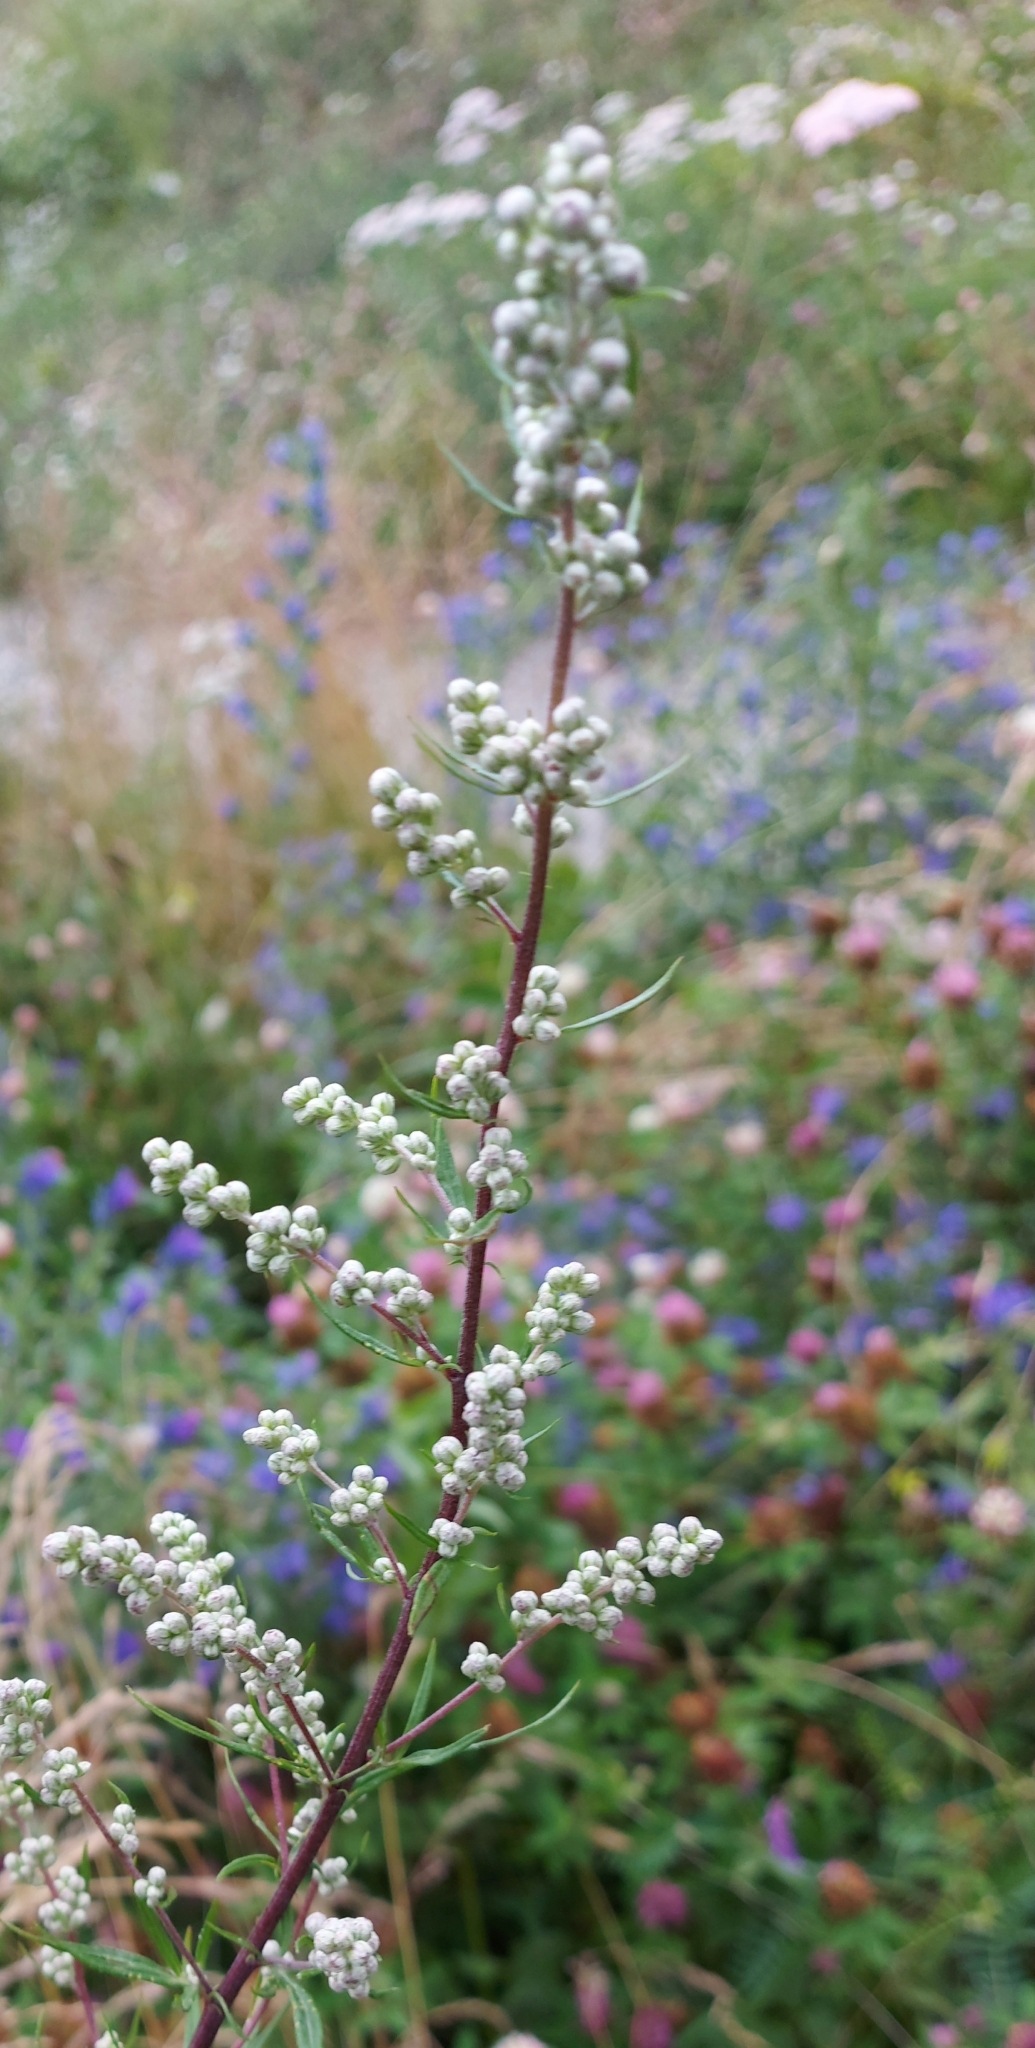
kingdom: Plantae
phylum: Tracheophyta
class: Magnoliopsida
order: Asterales
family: Asteraceae
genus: Artemisia
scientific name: Artemisia vulgaris
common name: Mugwort
